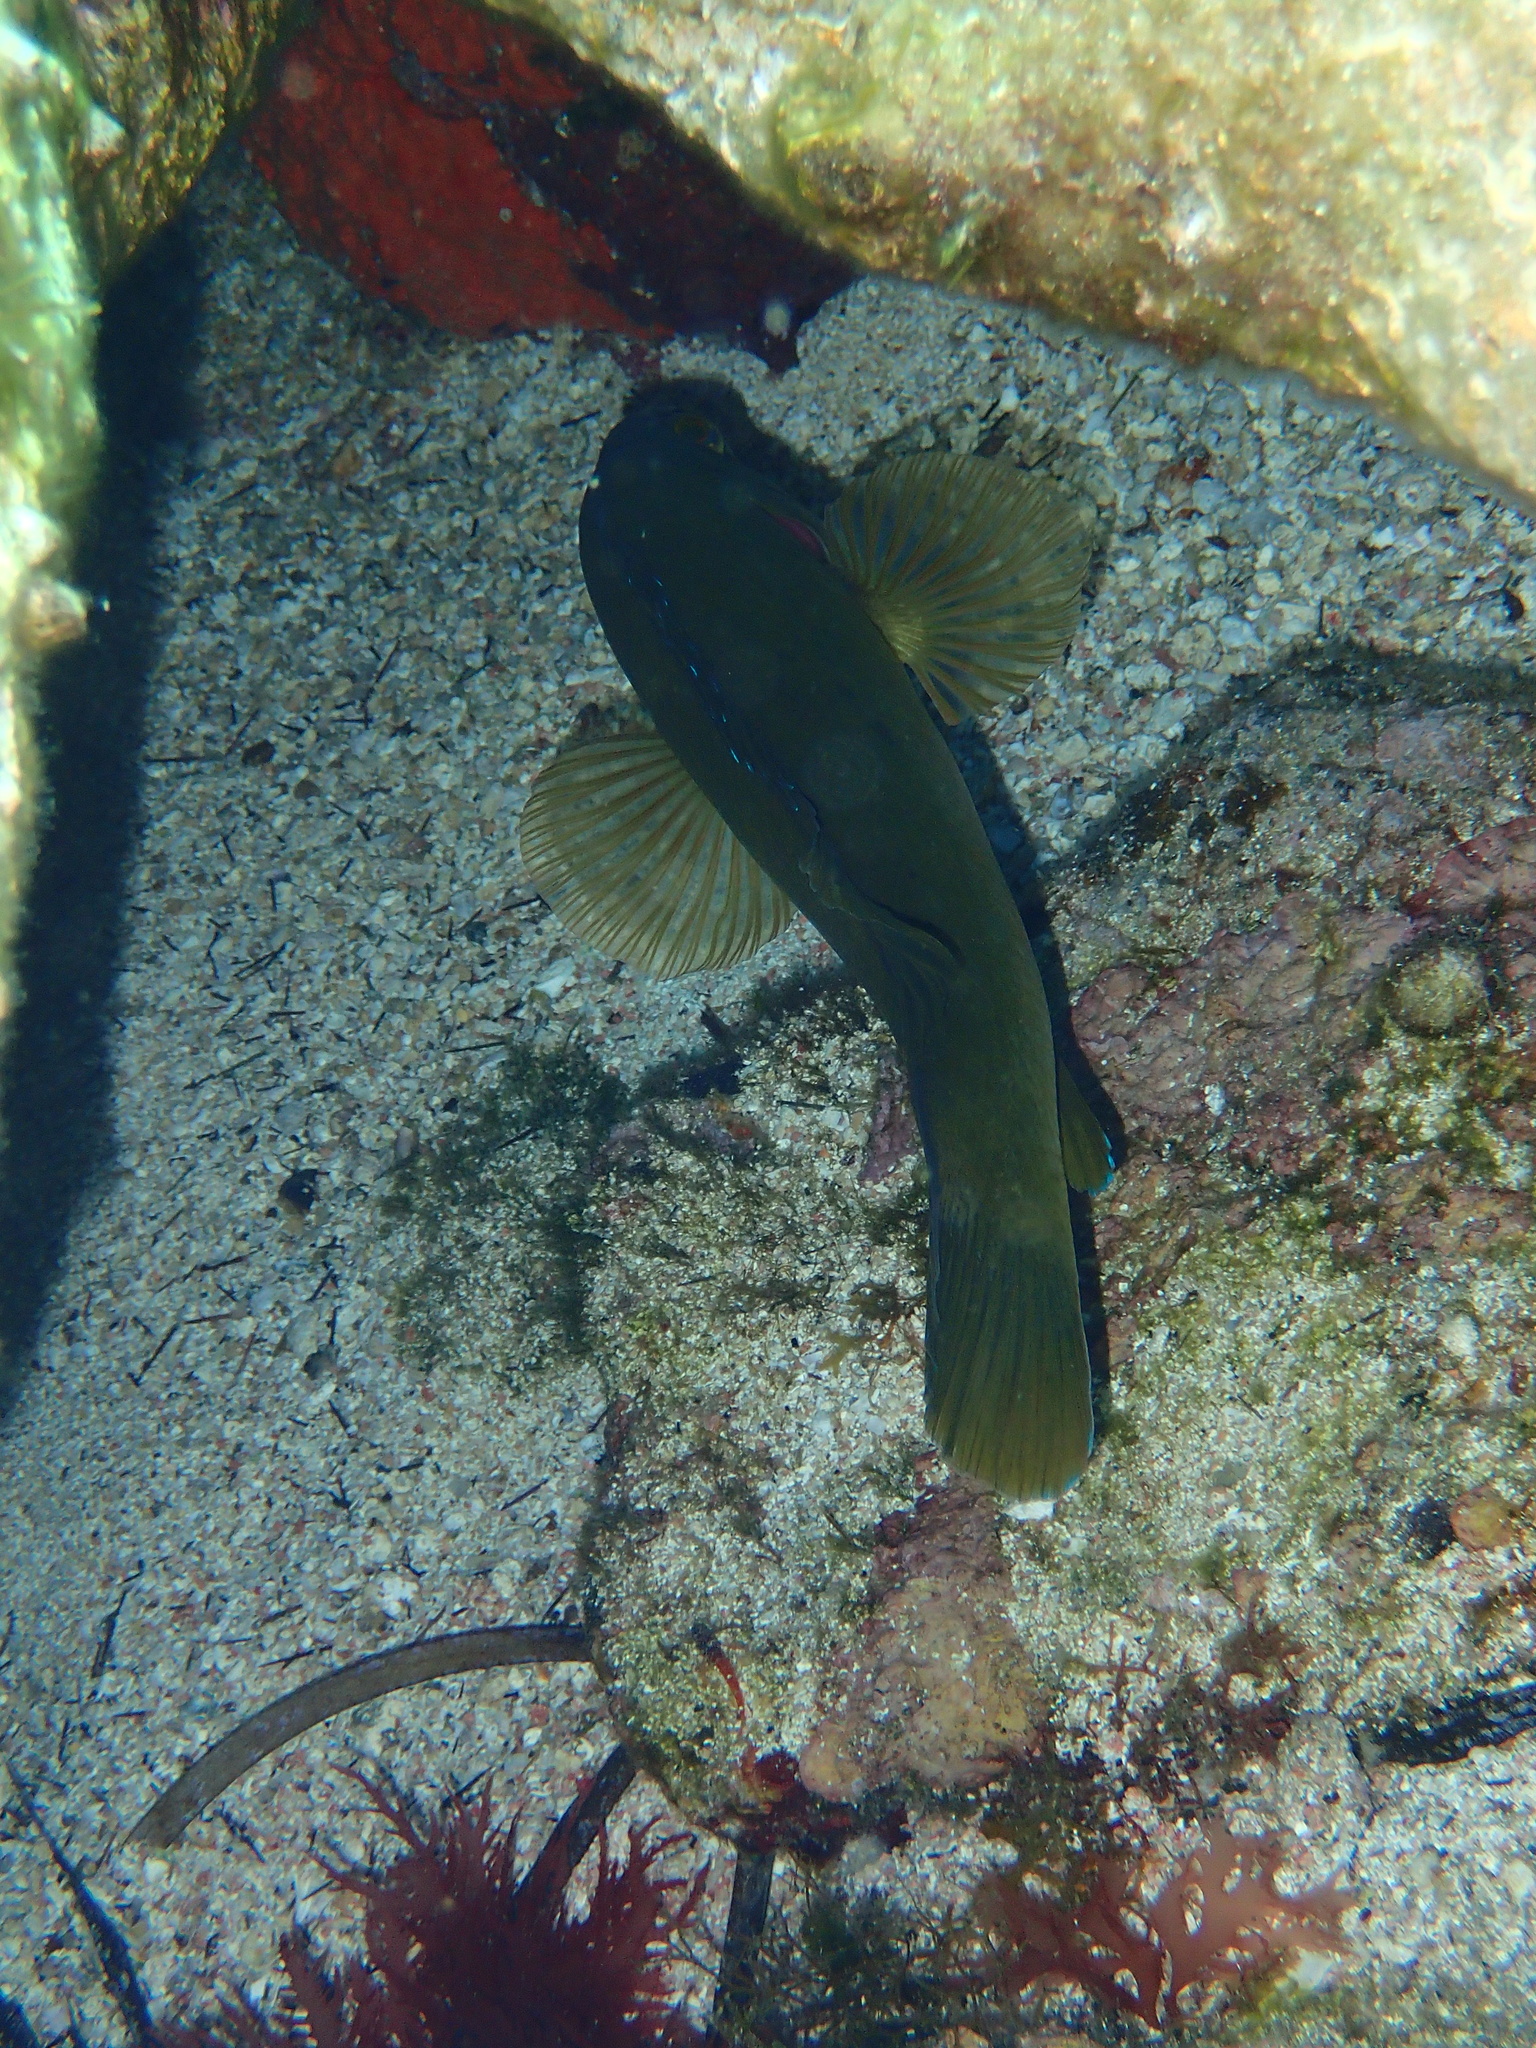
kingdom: Animalia
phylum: Chordata
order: Perciformes
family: Labridae
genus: Labrus
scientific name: Labrus merula
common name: Brown wrasse
